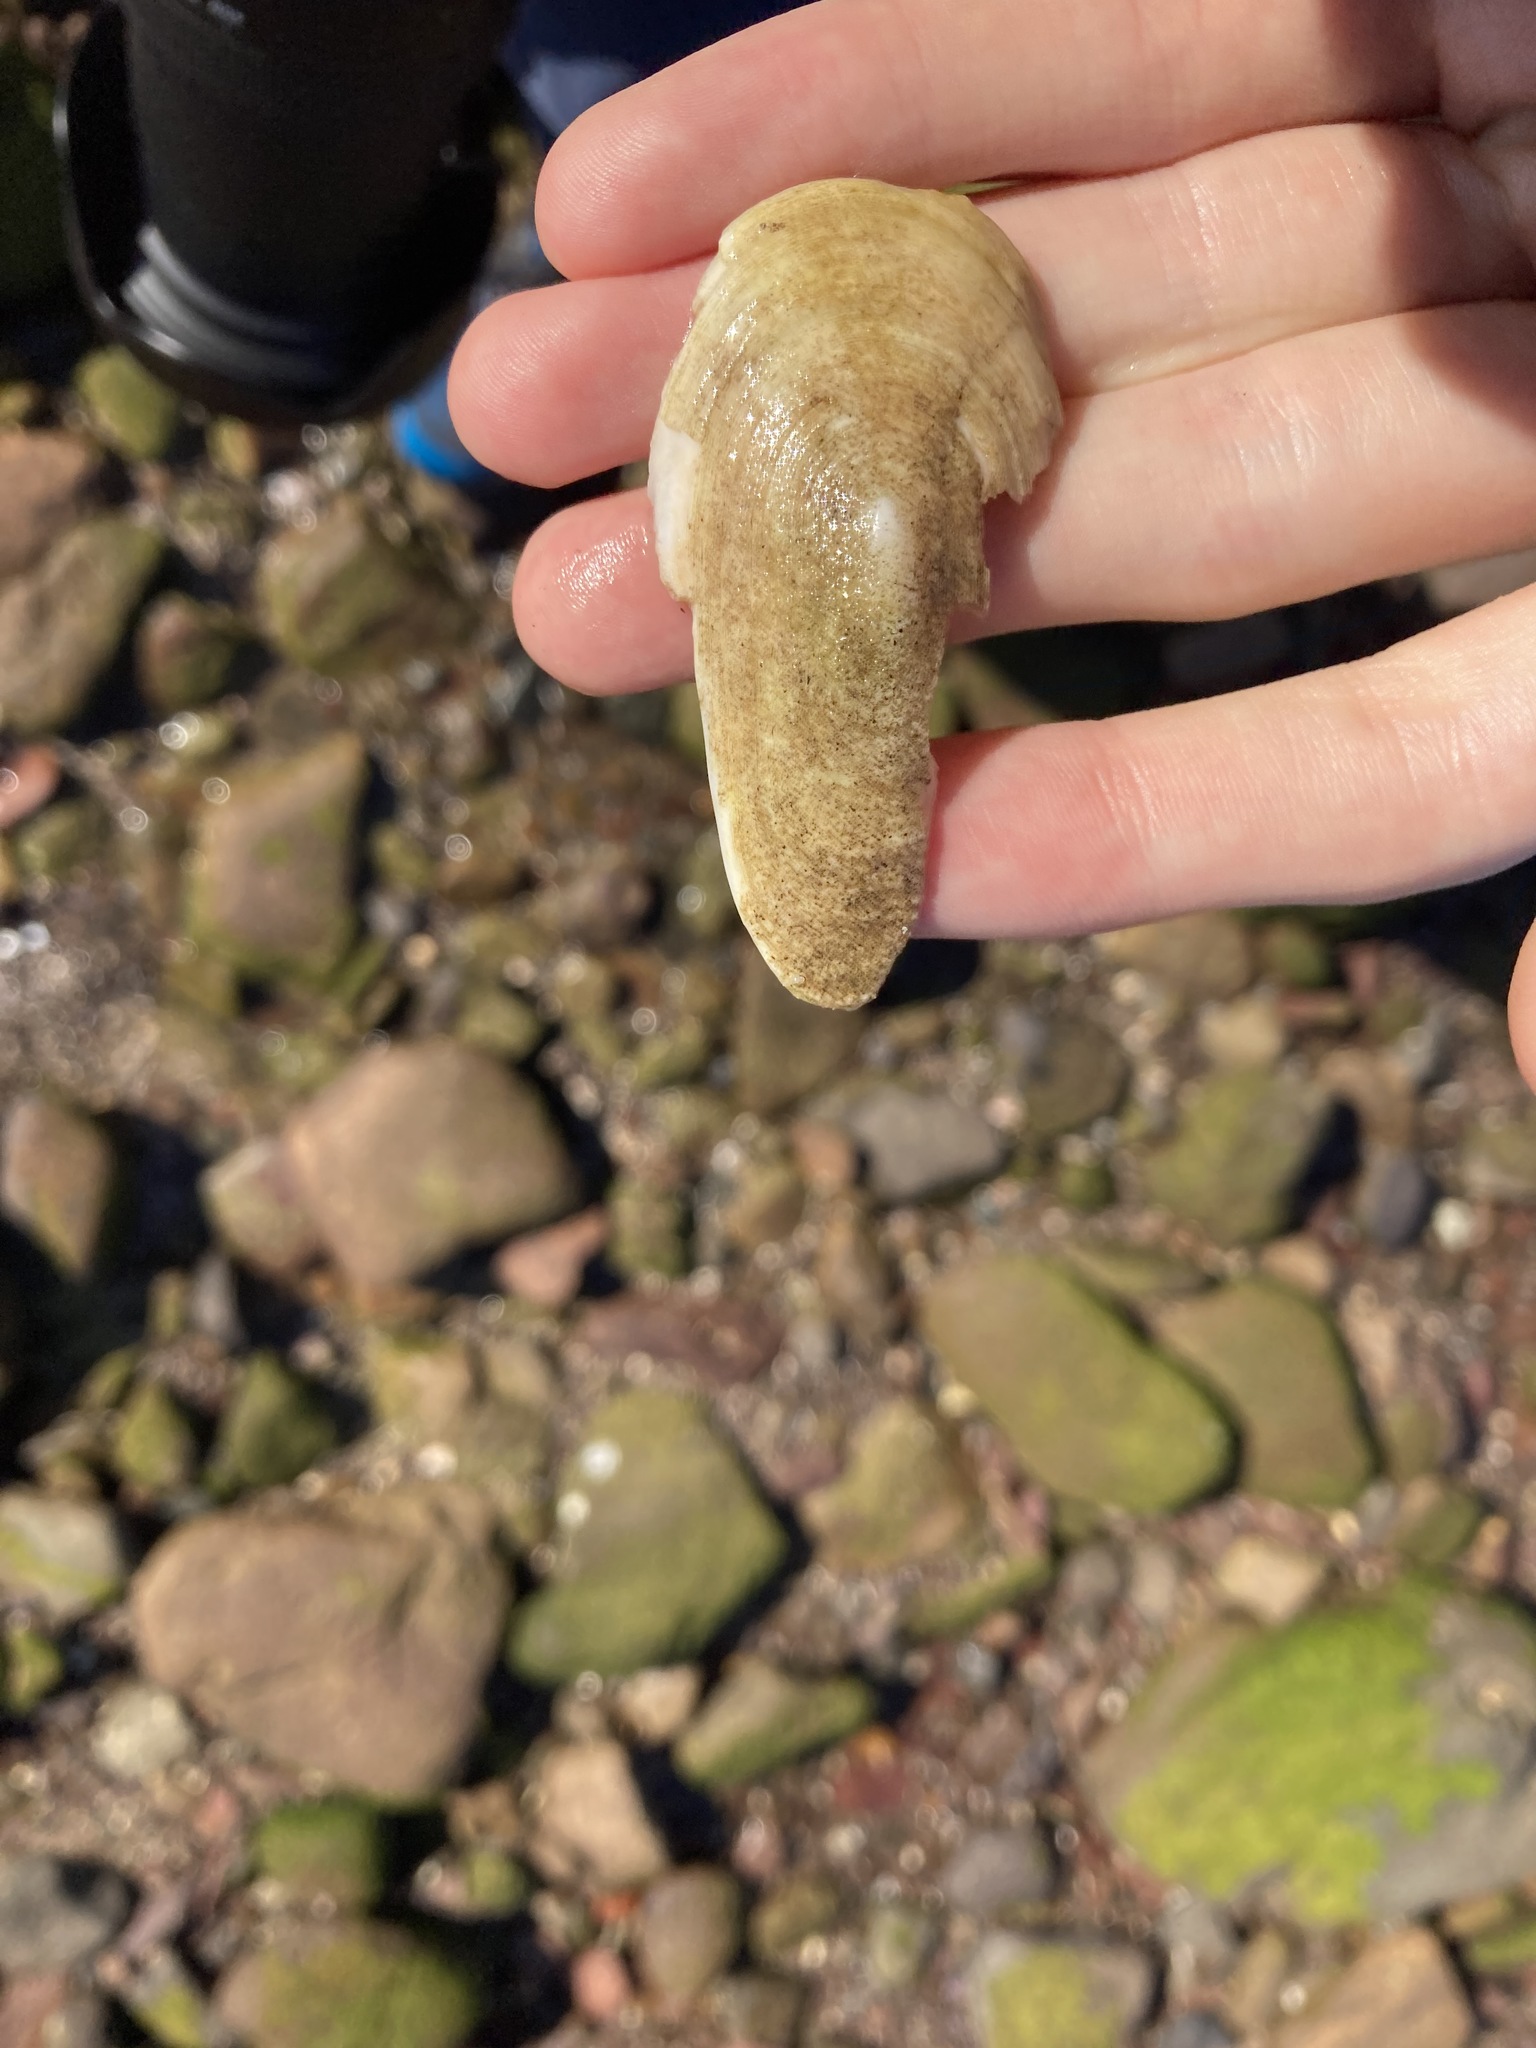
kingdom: Animalia
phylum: Mollusca
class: Gastropoda
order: Lepetellida
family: Fissurellidae
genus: Scutus
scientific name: Scutus antipodes
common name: Duckbill shell
